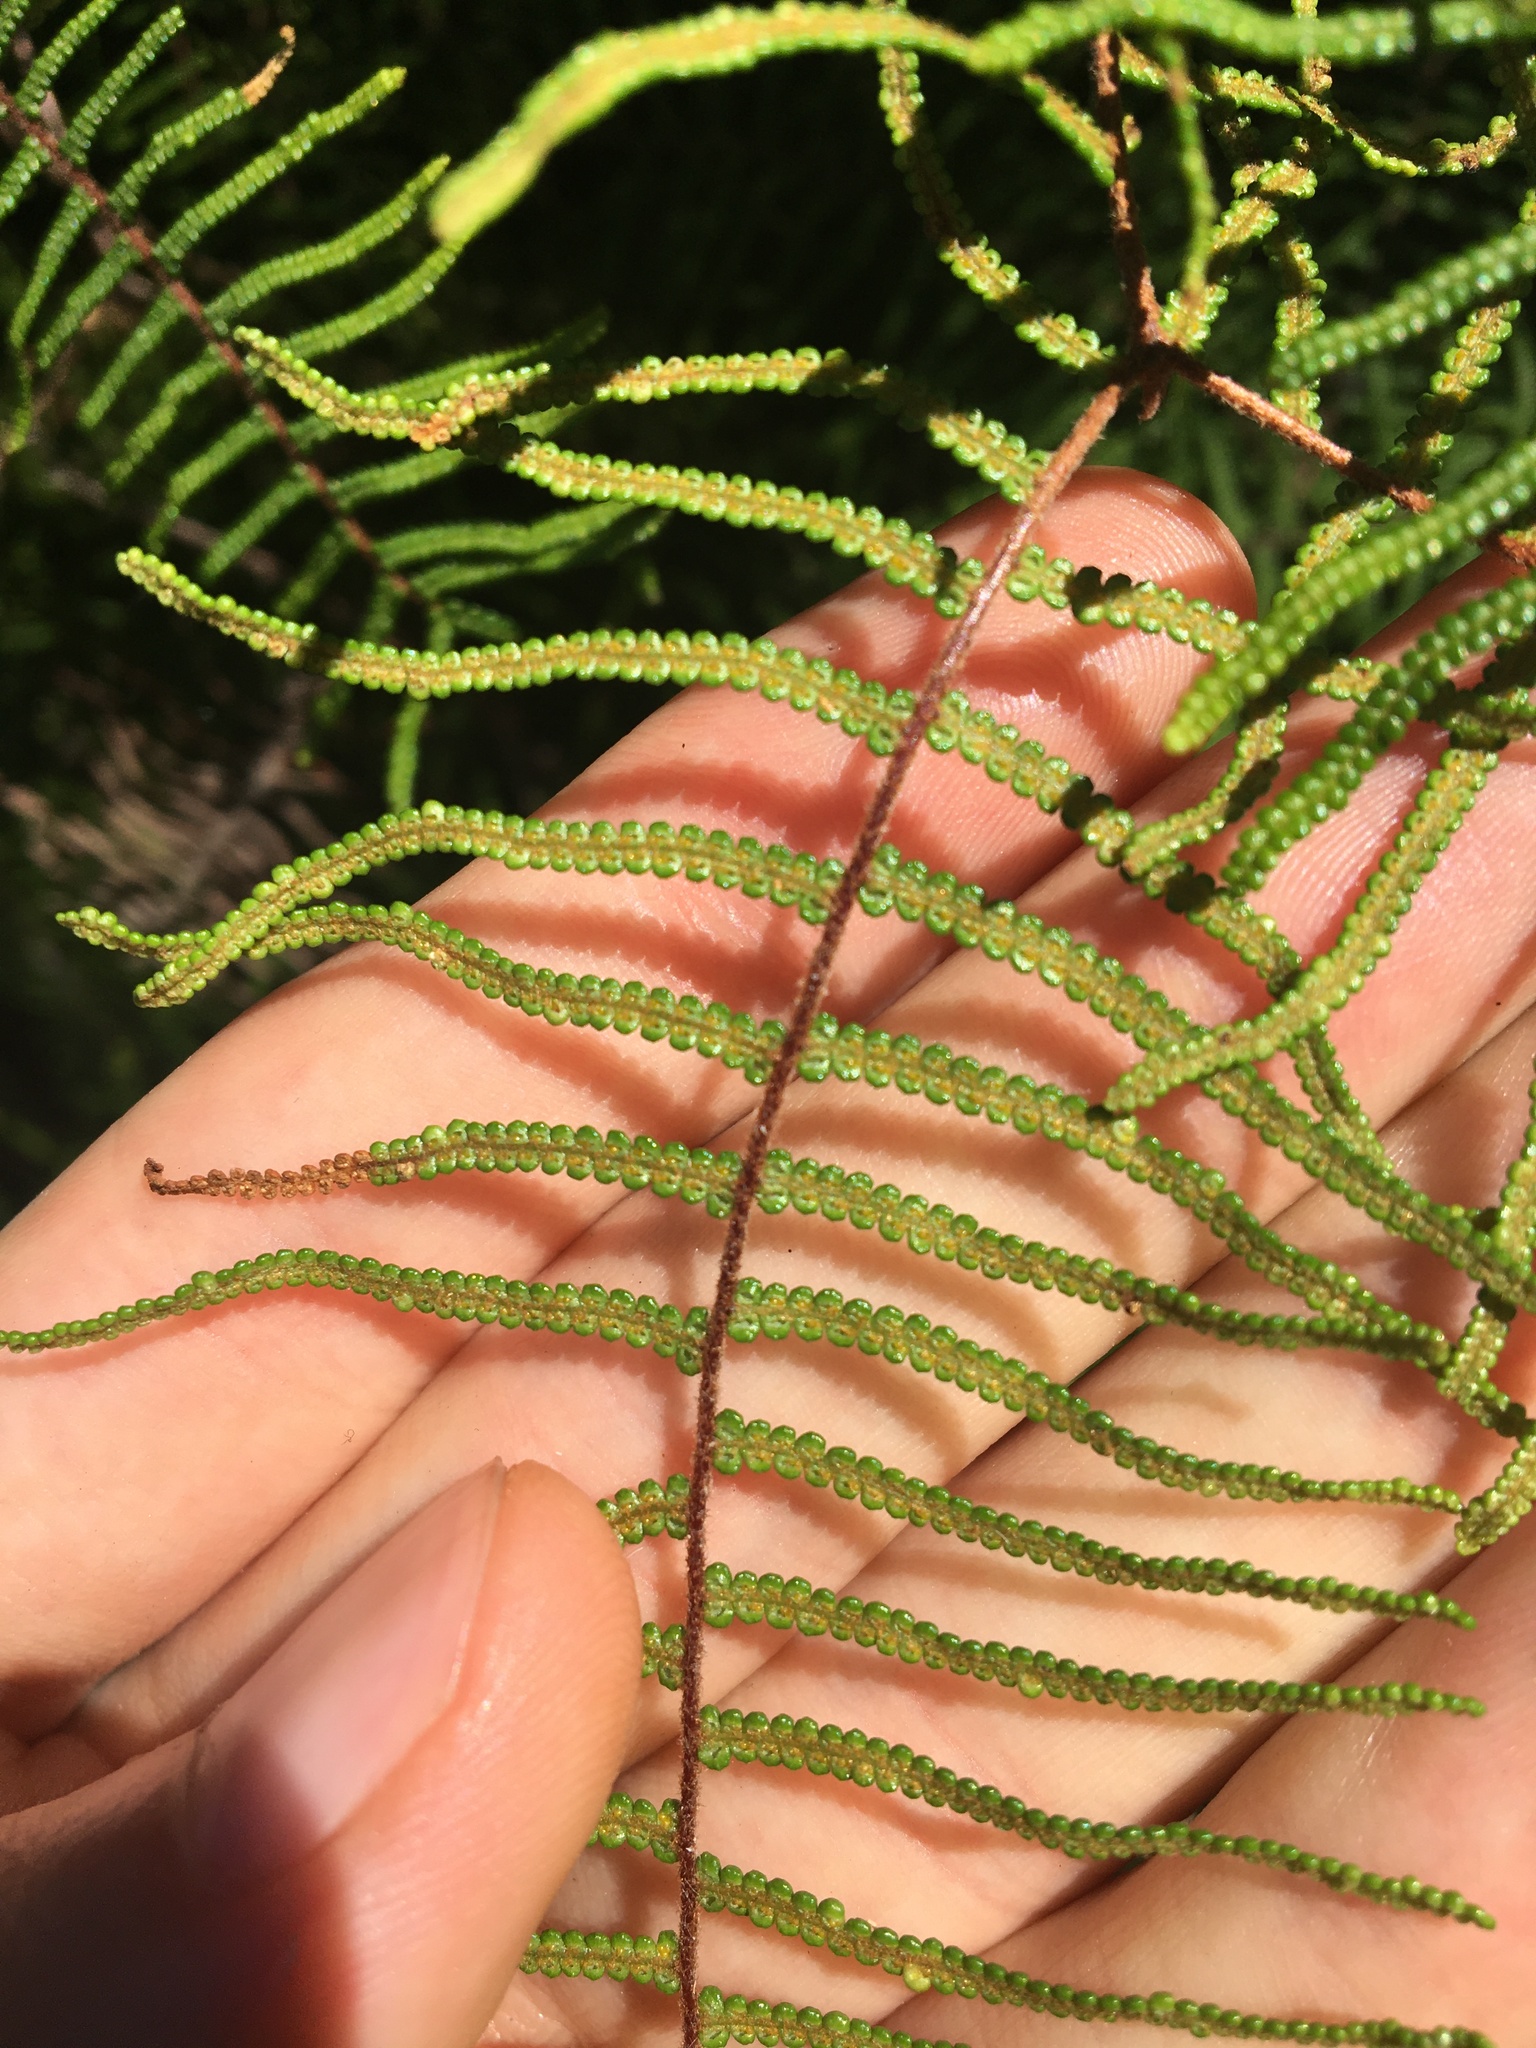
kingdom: Plantae
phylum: Tracheophyta
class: Polypodiopsida
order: Gleicheniales
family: Gleicheniaceae
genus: Gleichenia
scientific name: Gleichenia dicarpa
